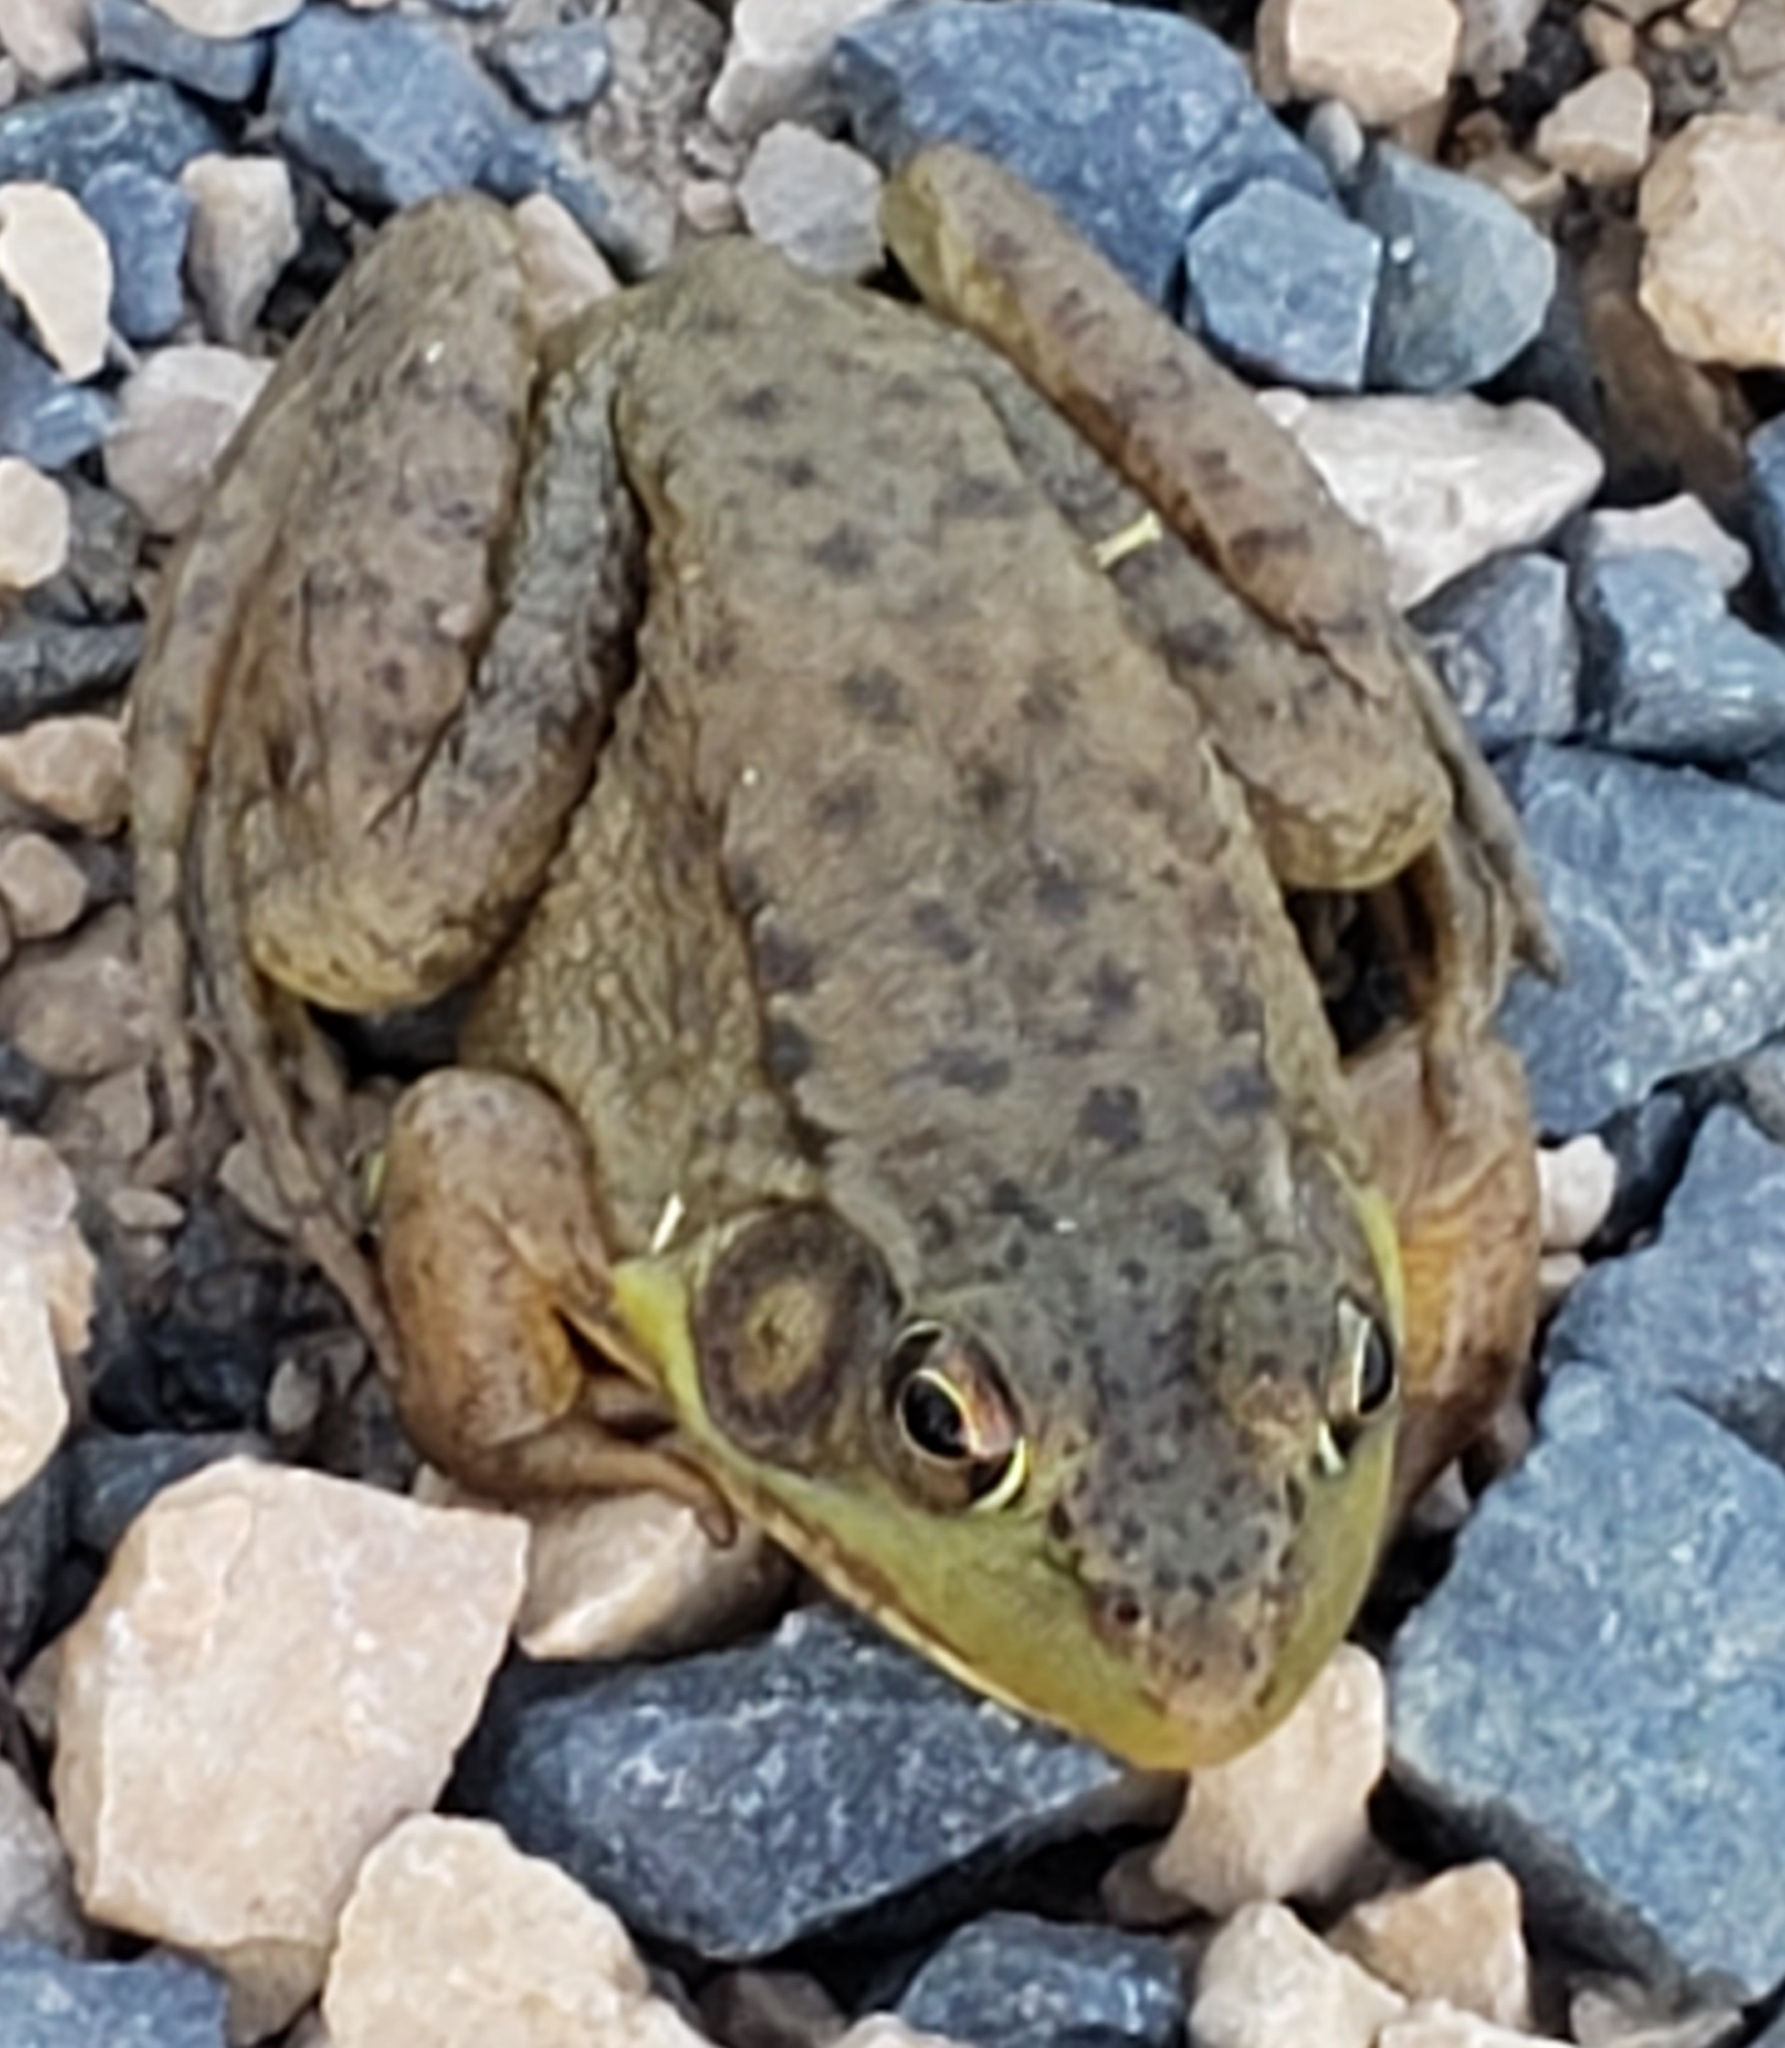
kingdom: Animalia
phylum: Chordata
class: Amphibia
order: Anura
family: Ranidae
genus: Lithobates
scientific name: Lithobates clamitans
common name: Green frog
